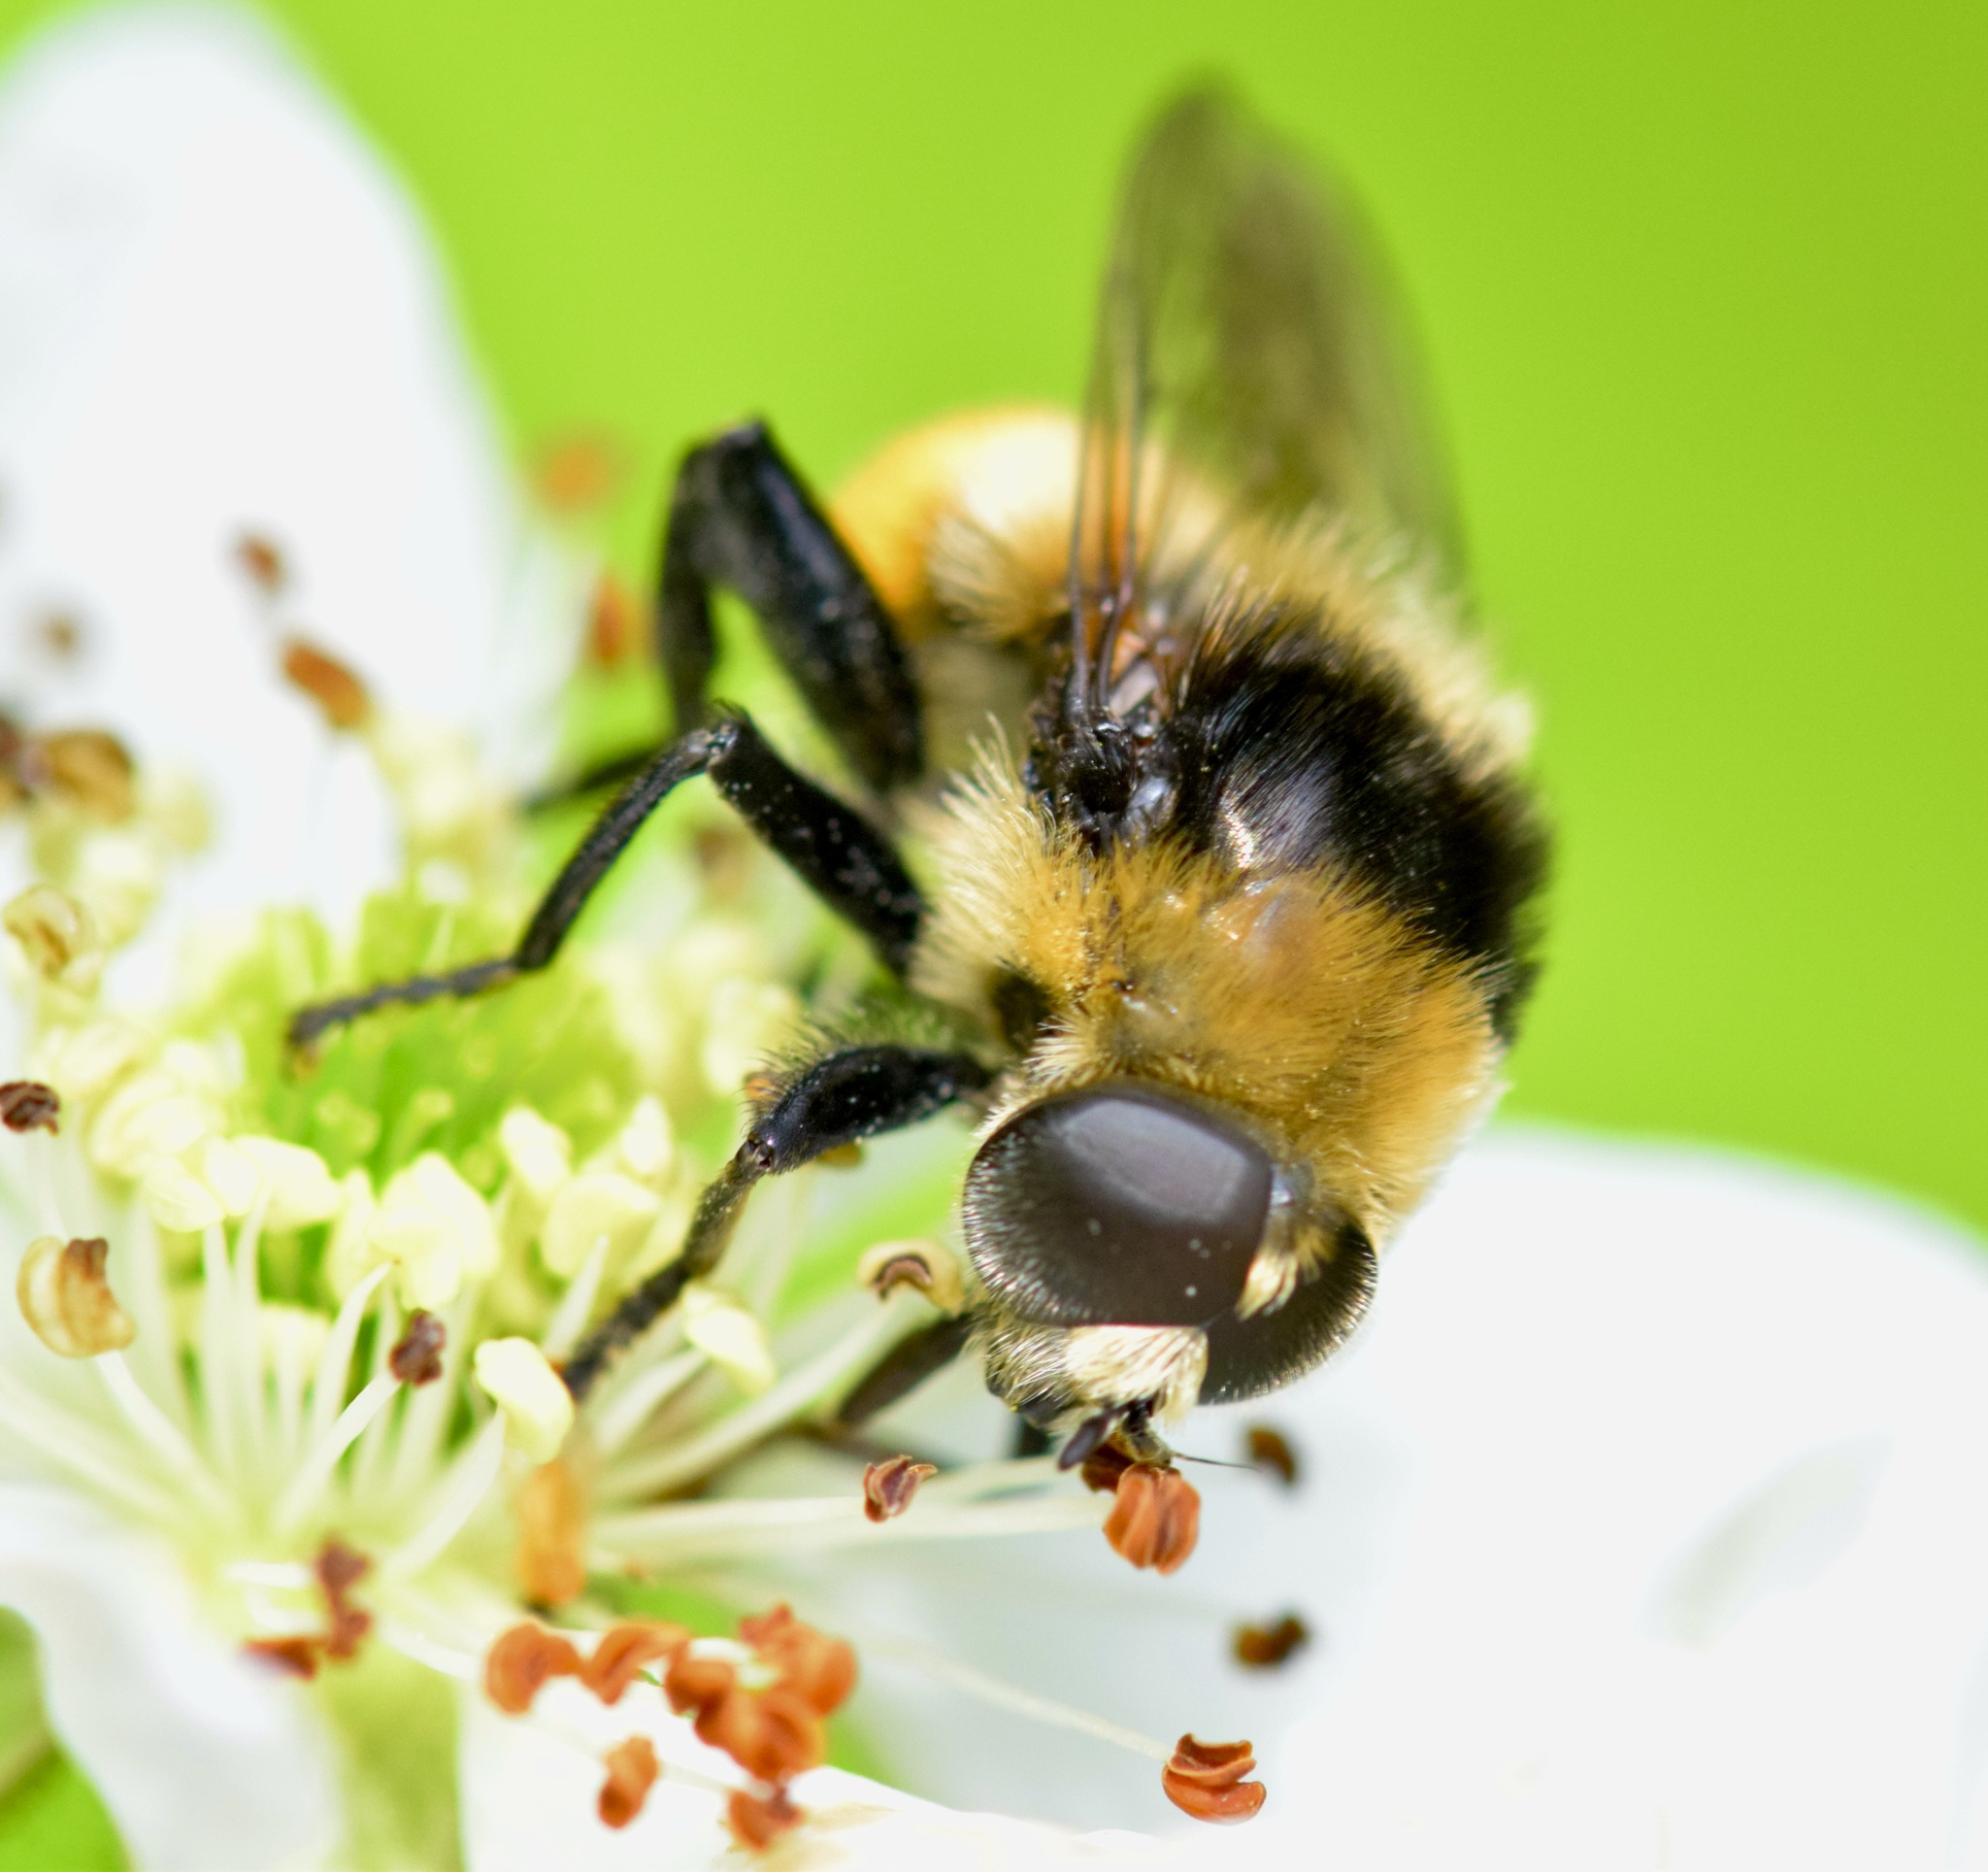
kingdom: Animalia
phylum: Arthropoda
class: Insecta
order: Diptera
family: Syrphidae
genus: Merodon
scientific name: Merodon equestris
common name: Greater bulb-fly
